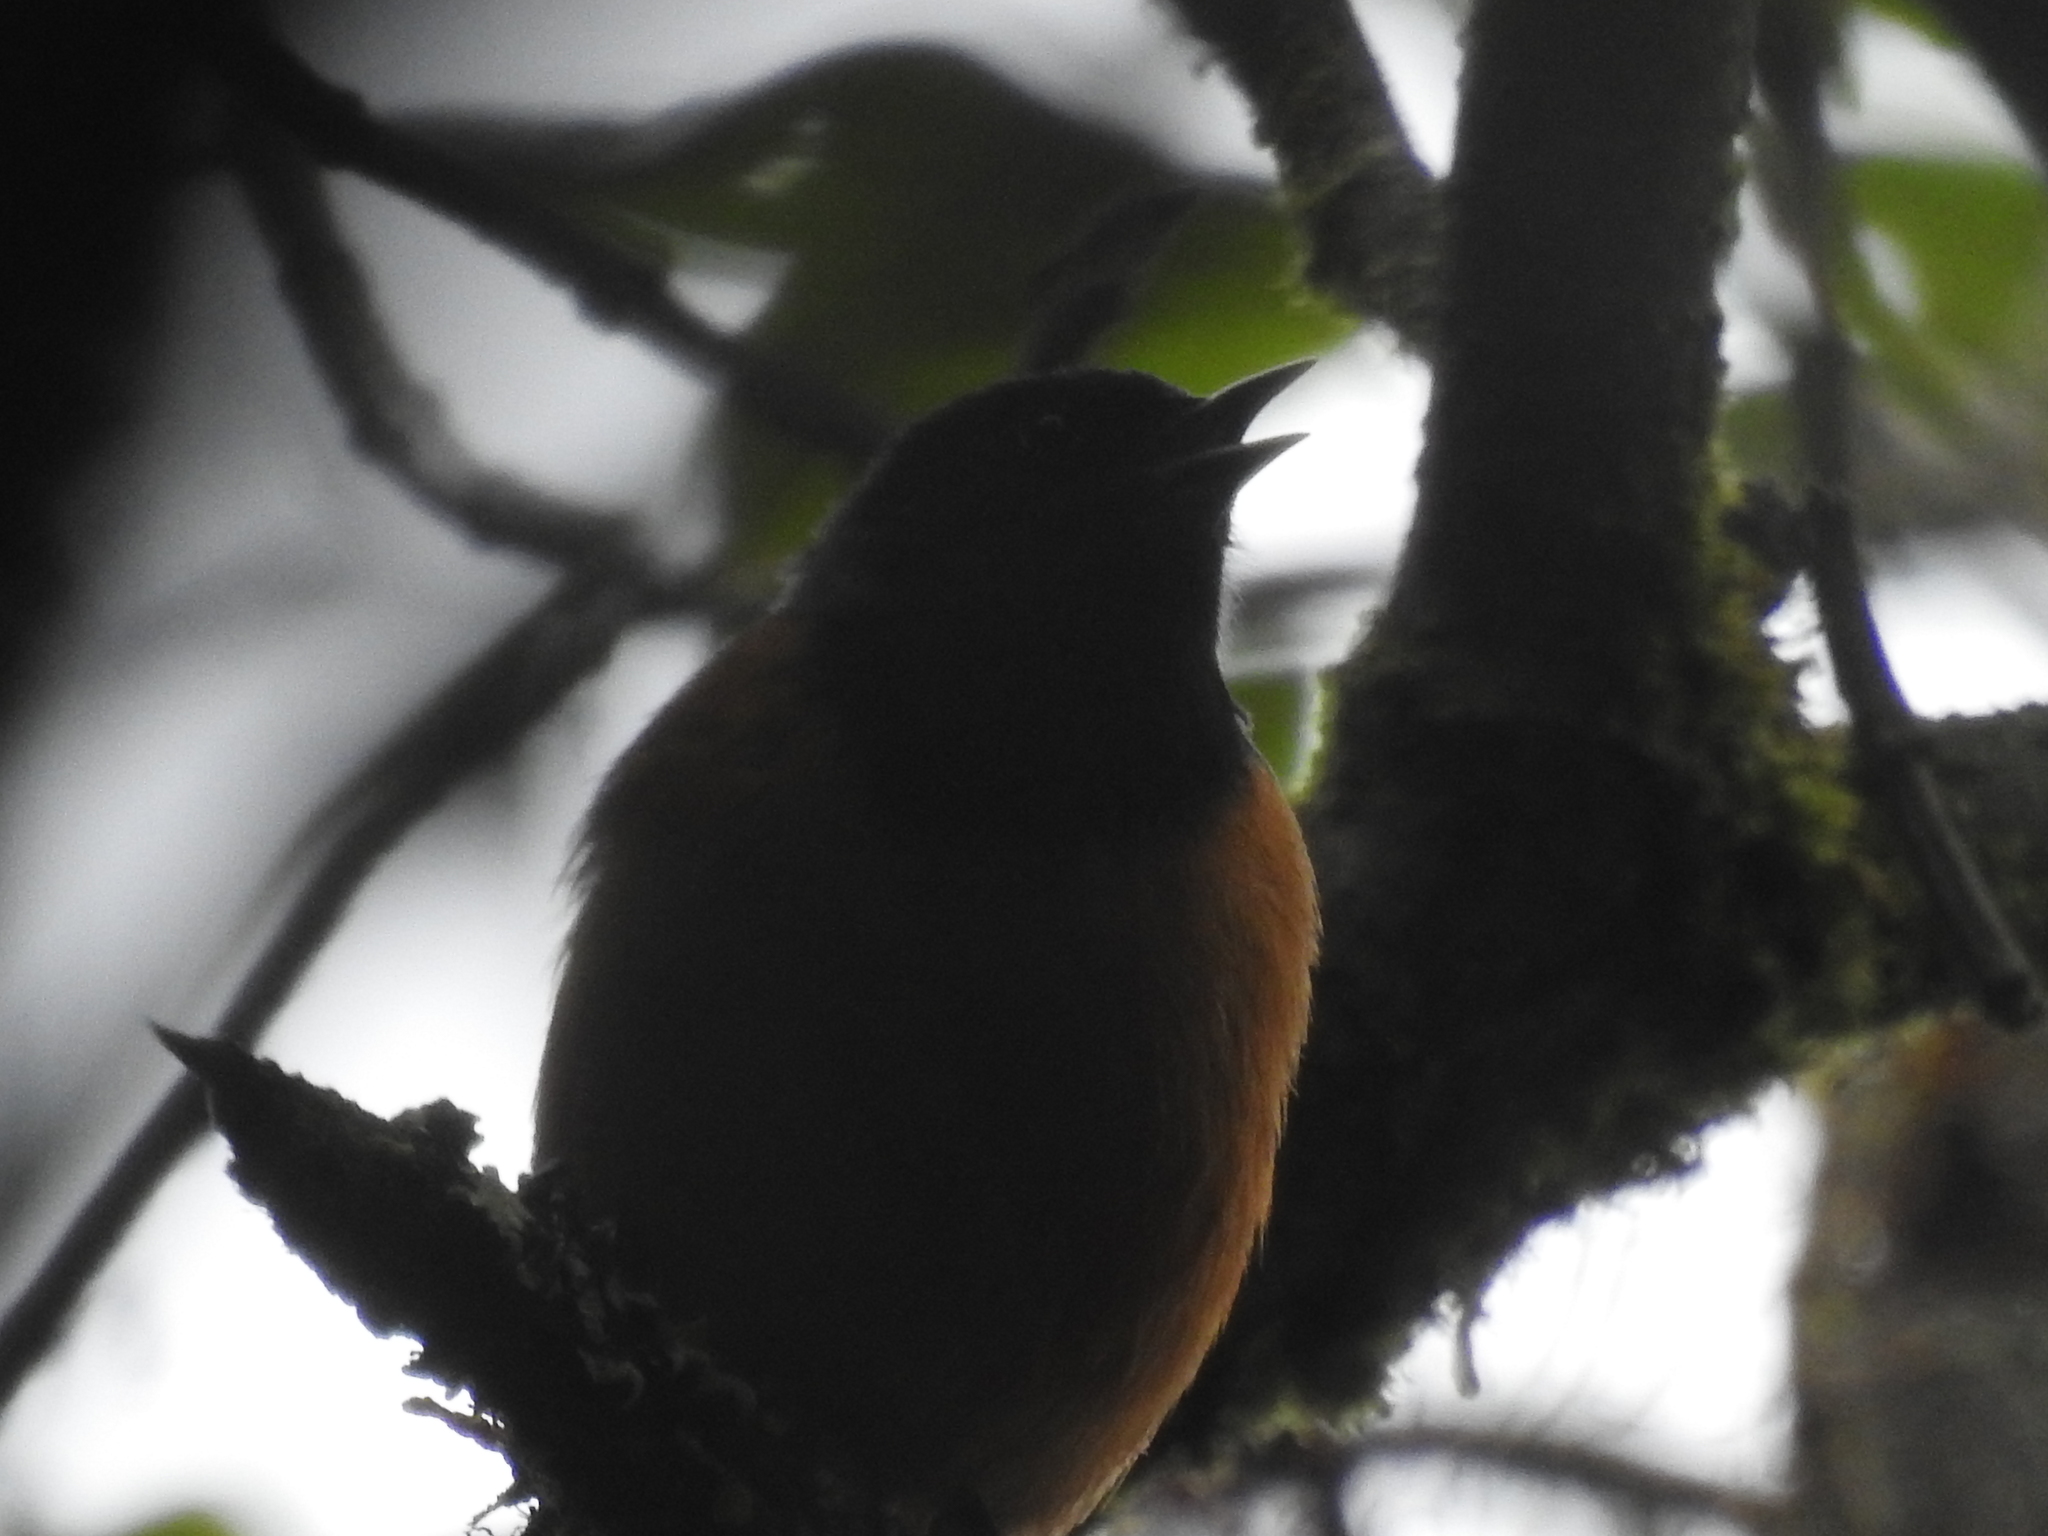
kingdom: Animalia
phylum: Chordata
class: Aves
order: Passeriformes
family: Thraupidae
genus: Conirostrum
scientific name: Conirostrum sitticolor
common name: Blue-backed conebill
